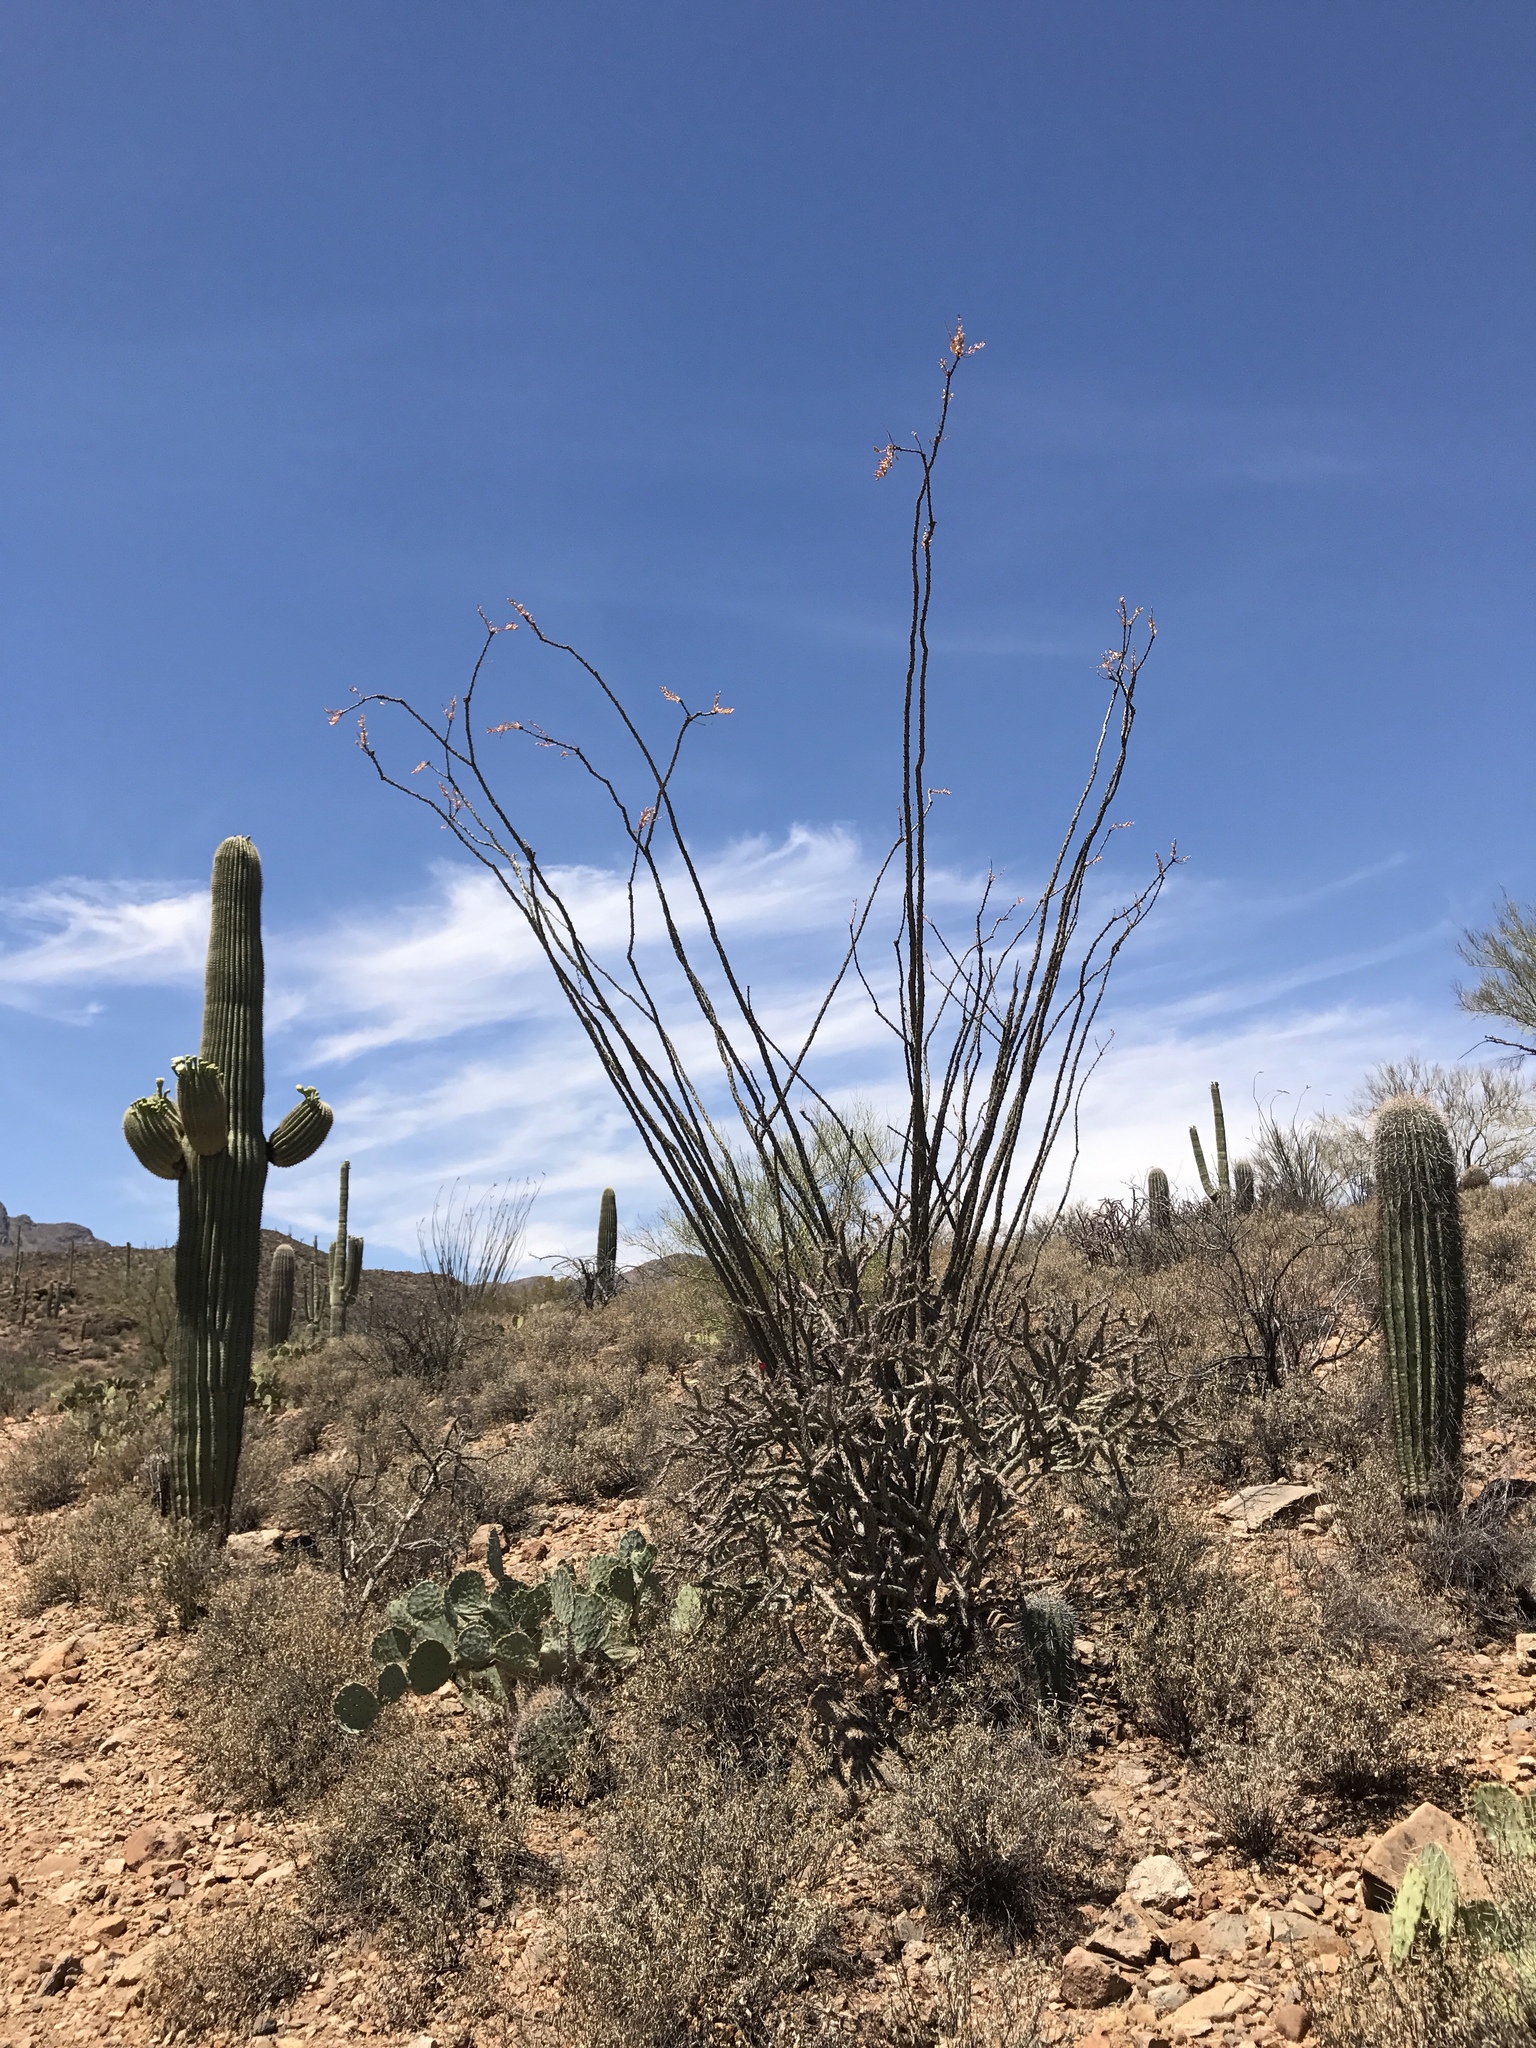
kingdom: Plantae
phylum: Tracheophyta
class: Magnoliopsida
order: Ericales
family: Fouquieriaceae
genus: Fouquieria
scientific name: Fouquieria splendens
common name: Vine-cactus
